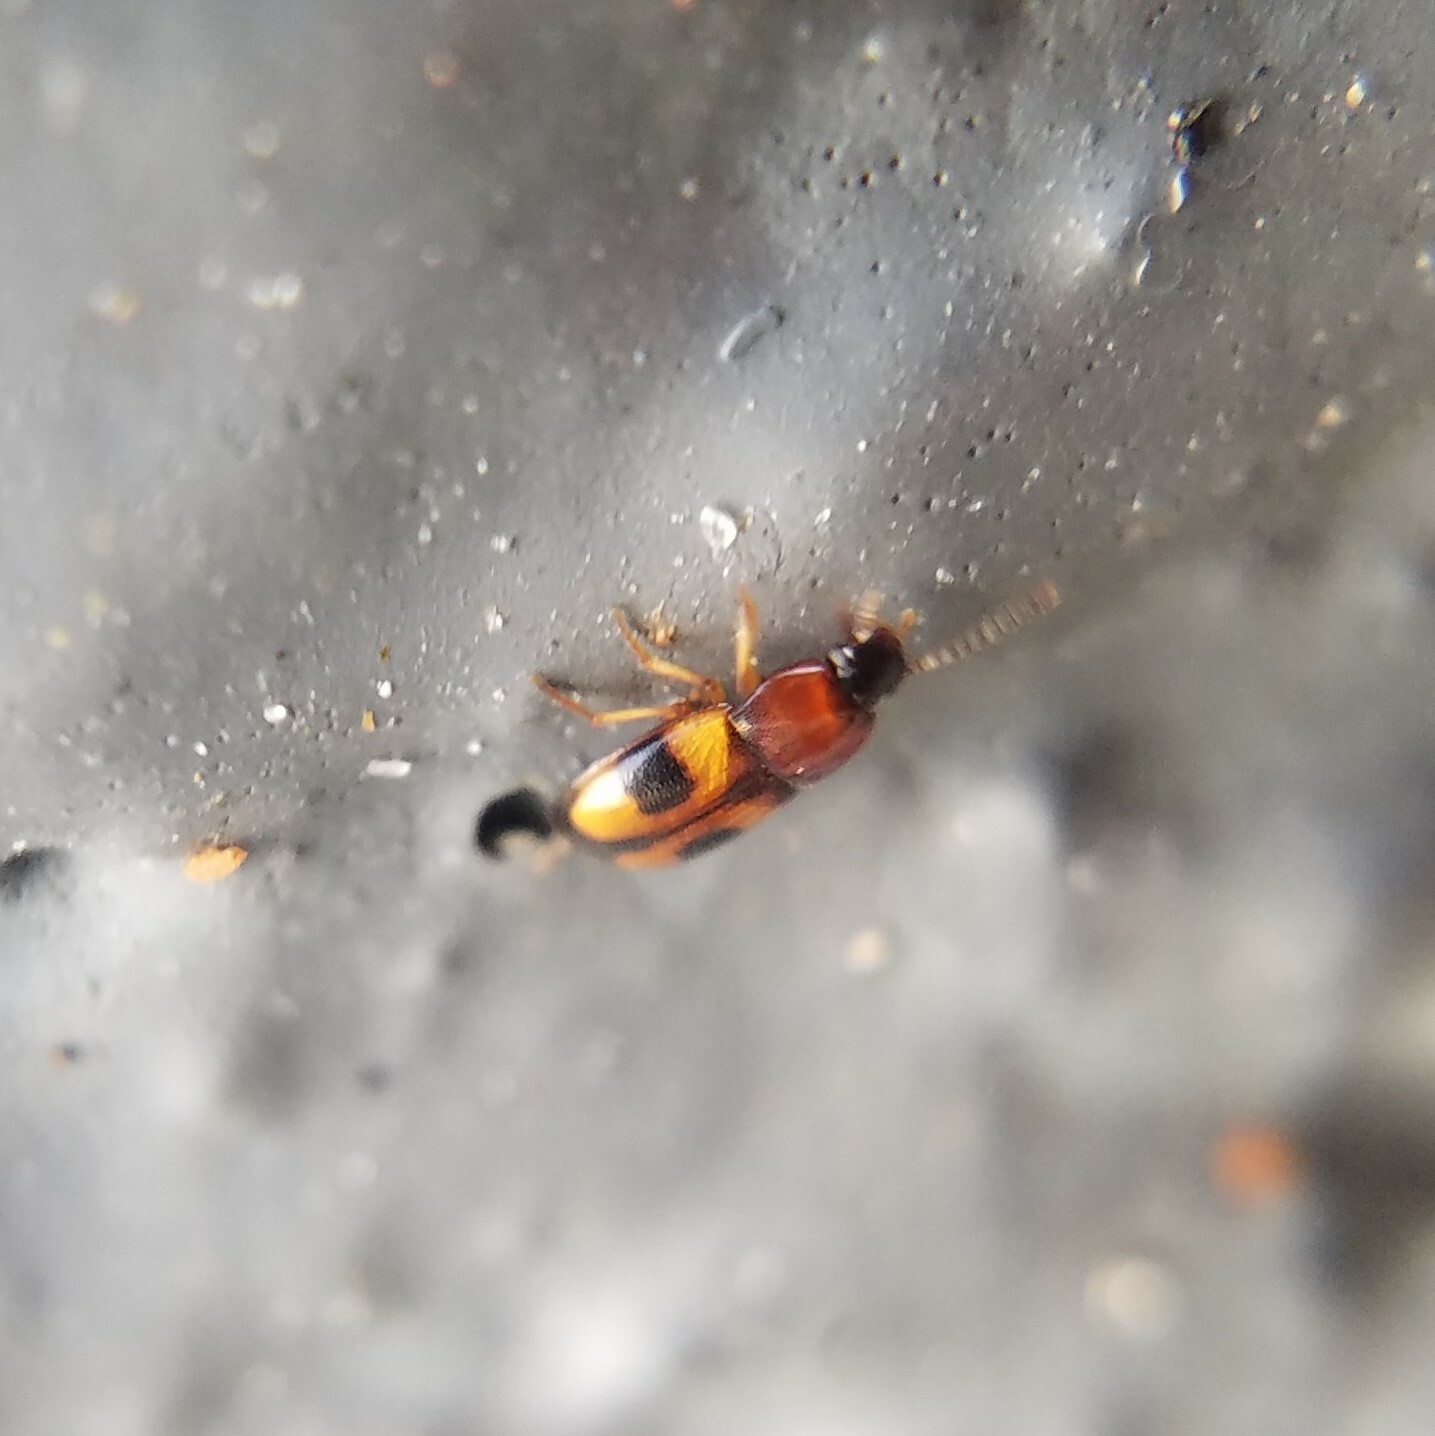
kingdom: Animalia
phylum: Arthropoda
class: Insecta
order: Coleoptera
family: Tenebrionidae
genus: Poecilocrypticus
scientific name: Poecilocrypticus formicophilus
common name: Darkling beetle
